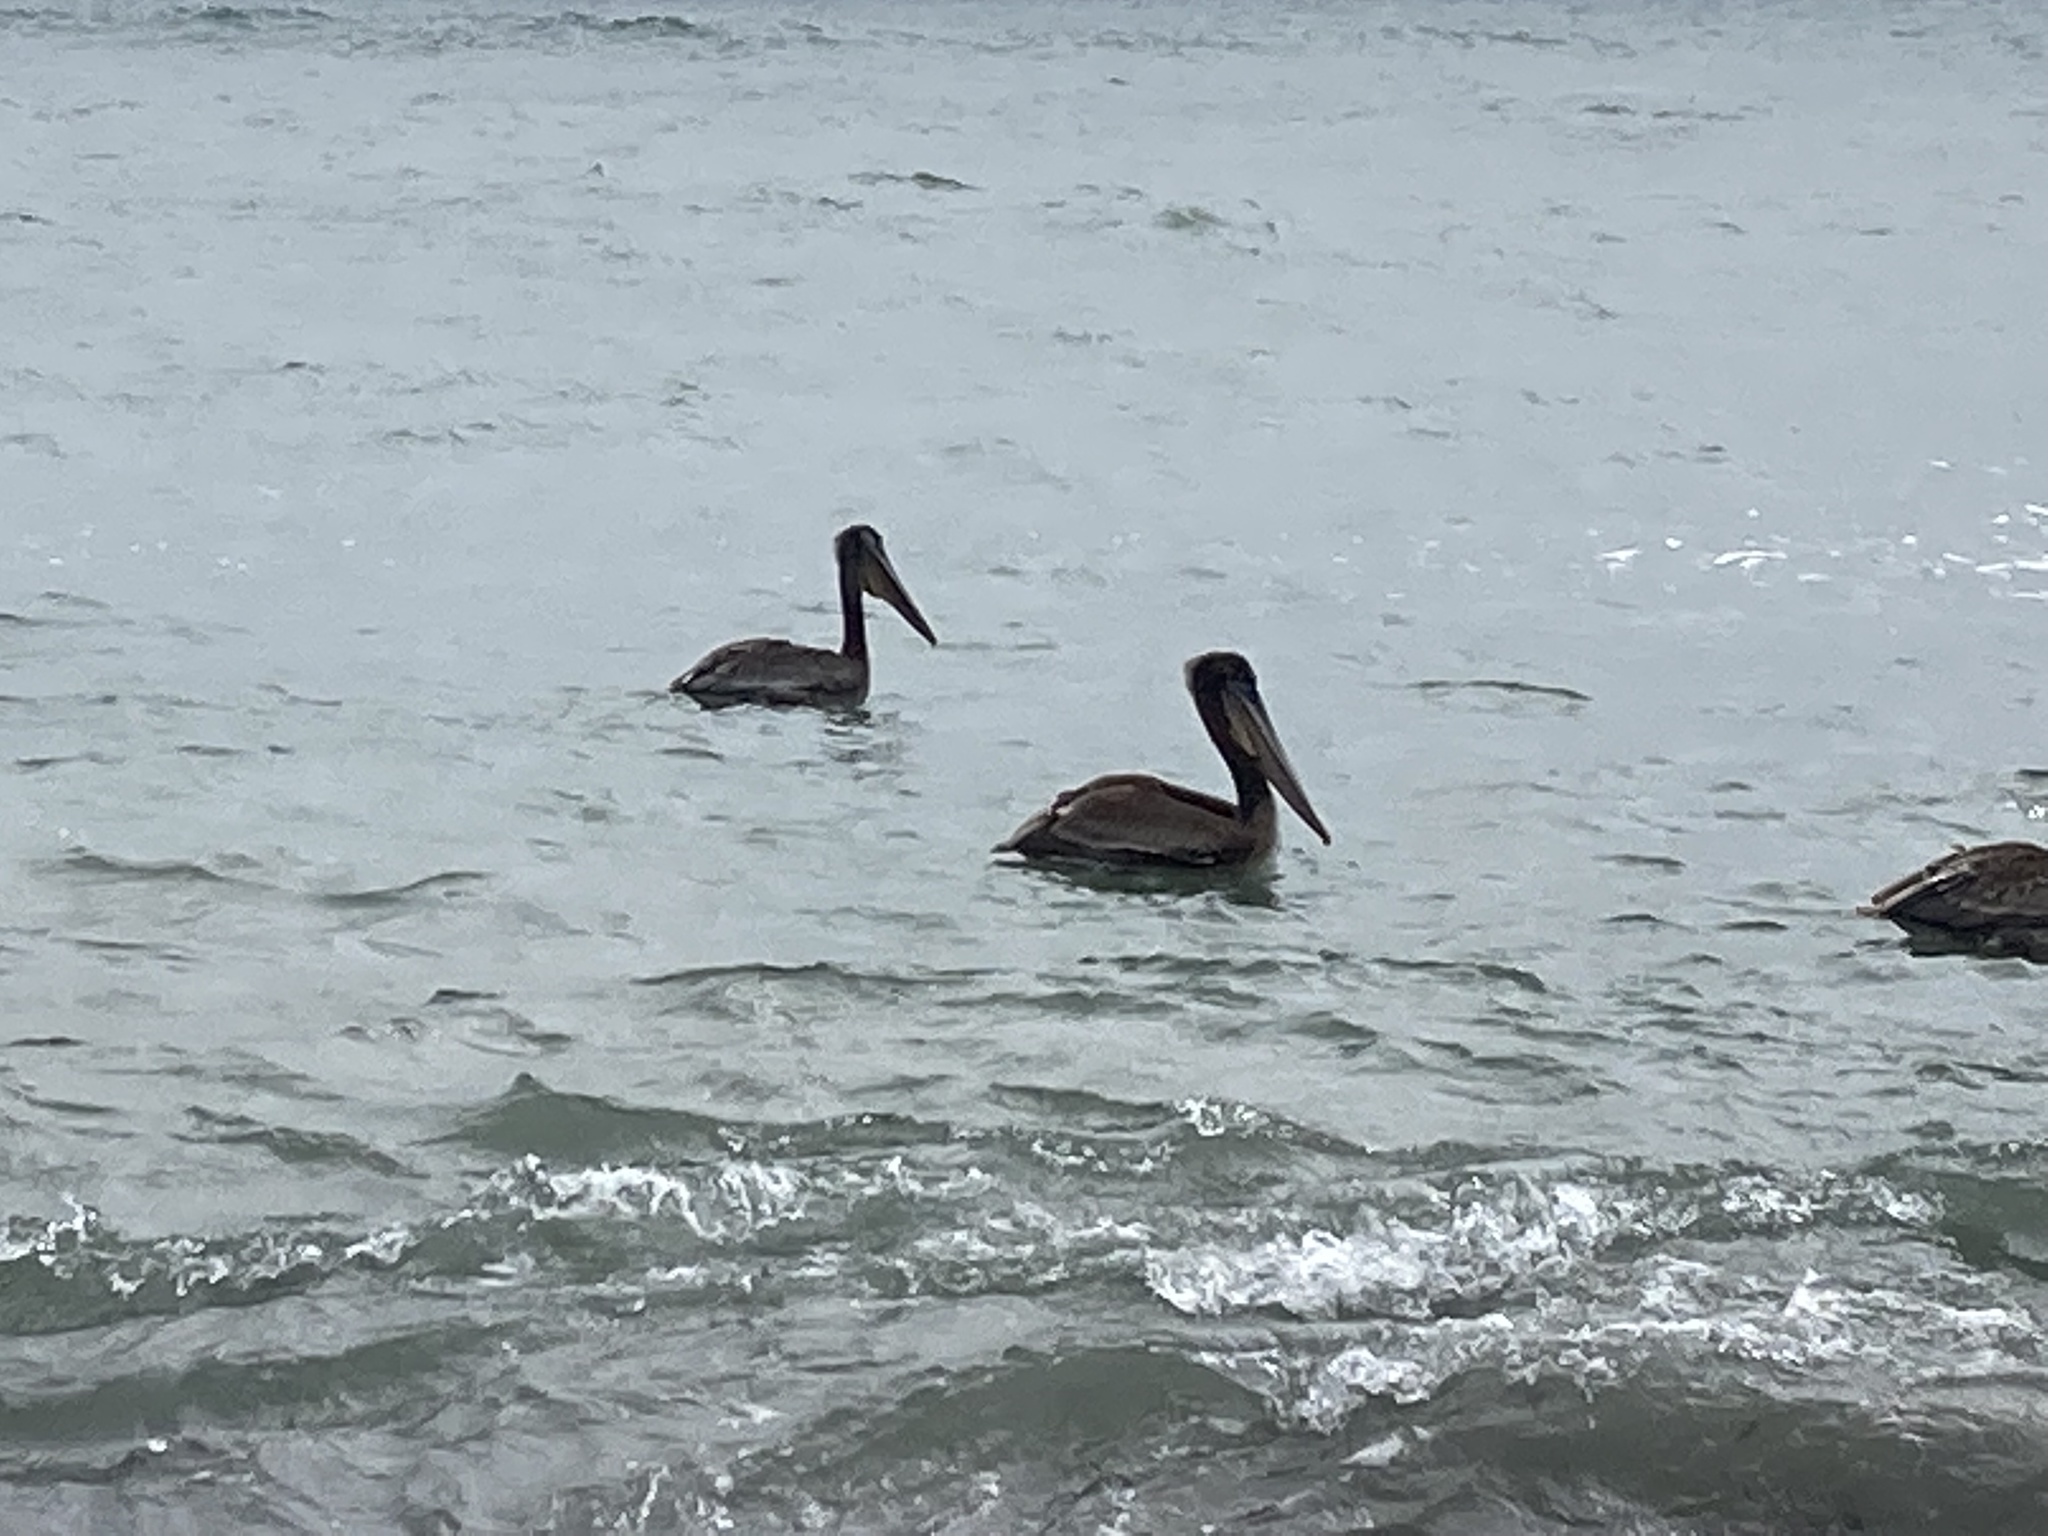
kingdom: Animalia
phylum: Chordata
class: Aves
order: Pelecaniformes
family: Pelecanidae
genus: Pelecanus
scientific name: Pelecanus occidentalis
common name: Brown pelican
